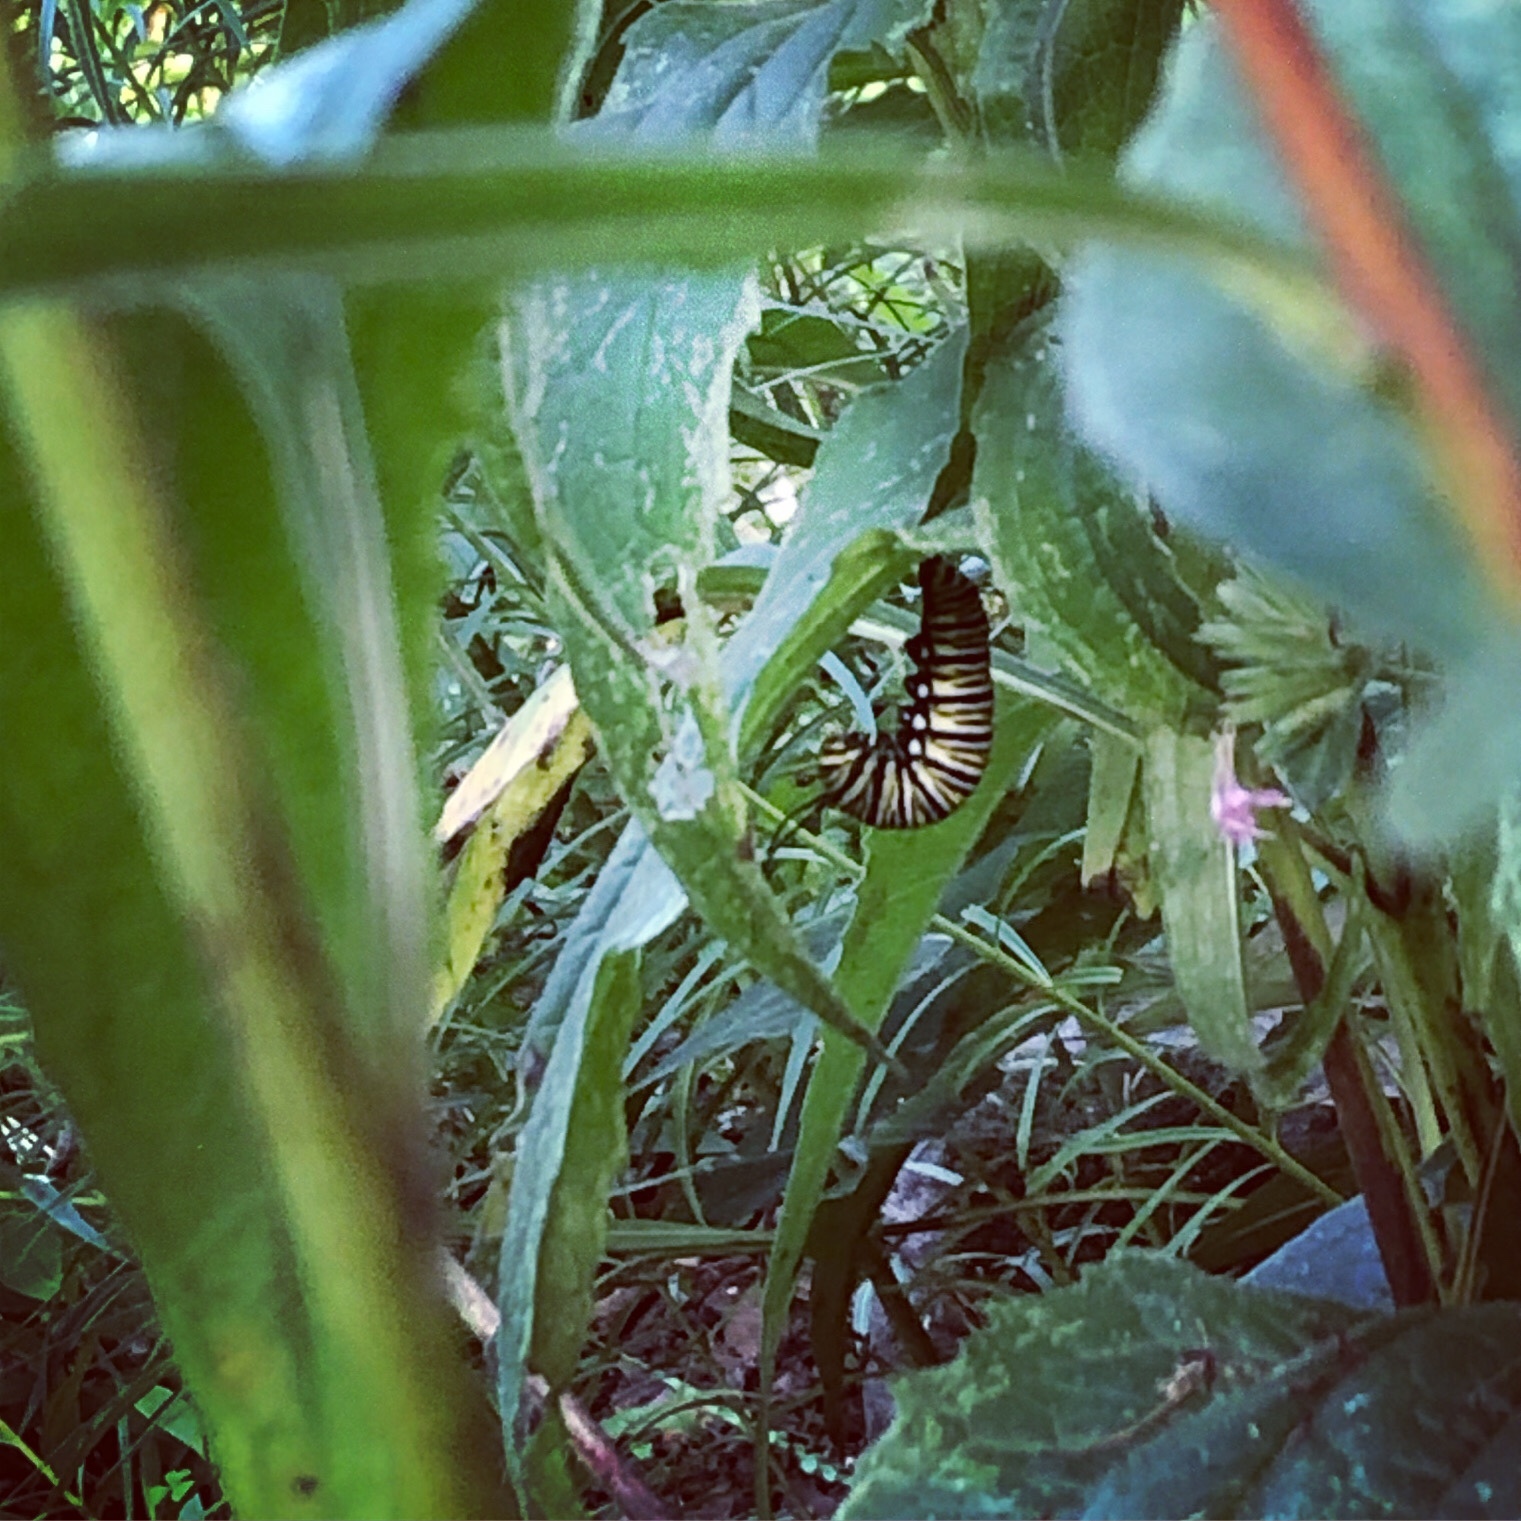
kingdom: Animalia
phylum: Arthropoda
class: Insecta
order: Lepidoptera
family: Nymphalidae
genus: Danaus
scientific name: Danaus plexippus
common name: Monarch
